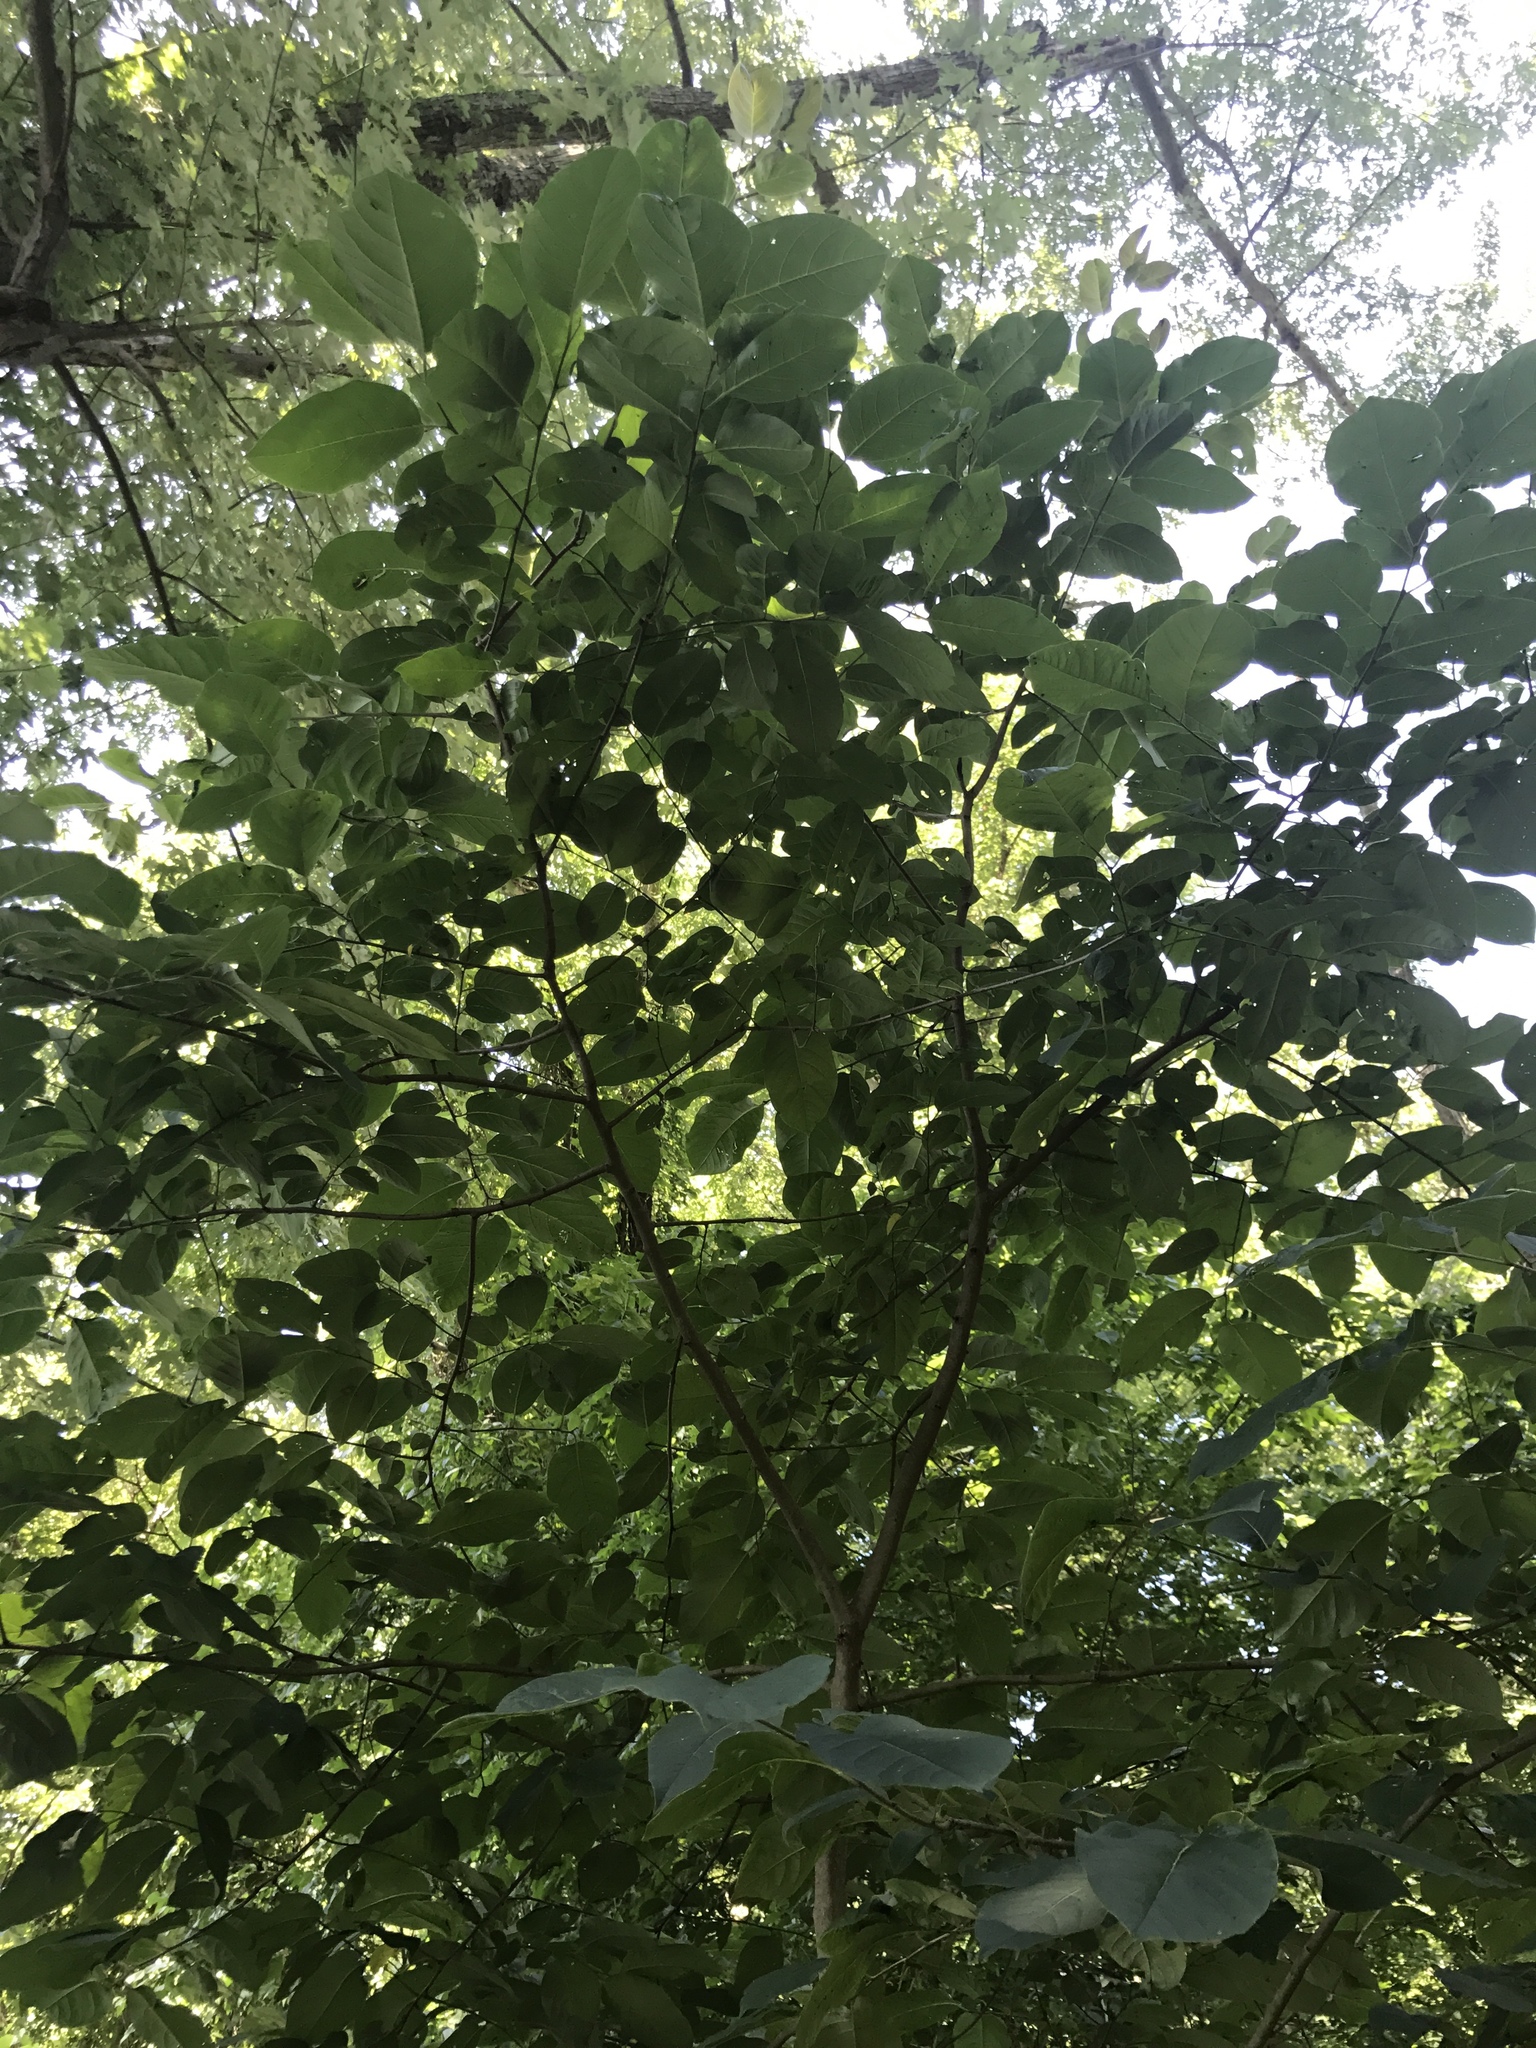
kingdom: Plantae
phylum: Tracheophyta
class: Magnoliopsida
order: Ericales
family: Ebenaceae
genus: Diospyros
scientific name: Diospyros virginiana
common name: Persimmon
